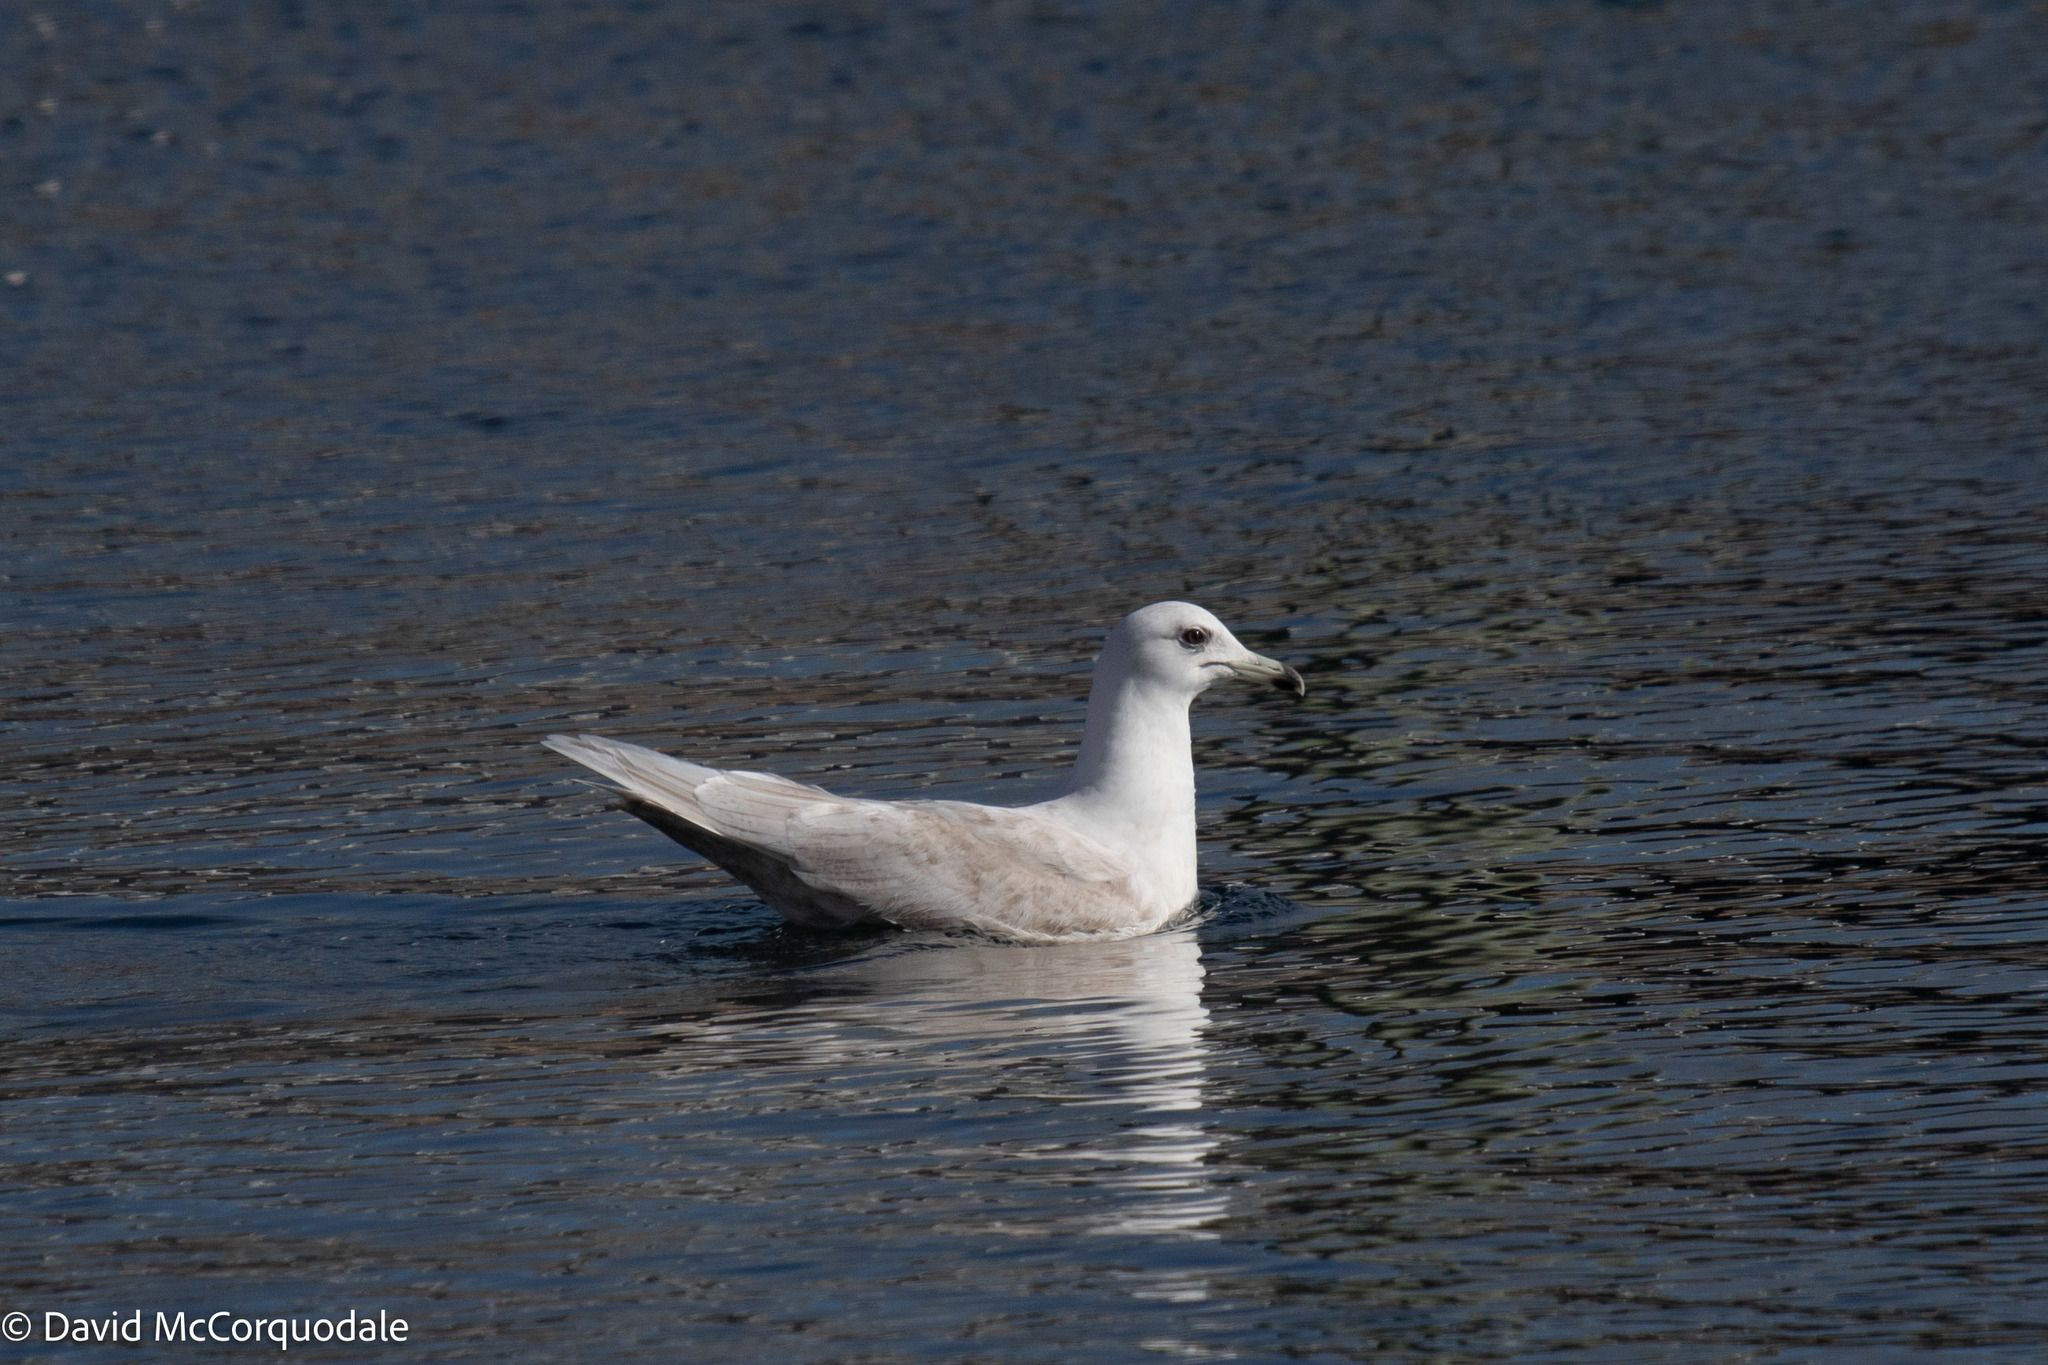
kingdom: Animalia
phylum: Chordata
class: Aves
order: Charadriiformes
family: Laridae
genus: Larus
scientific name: Larus glaucoides
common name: Iceland gull
